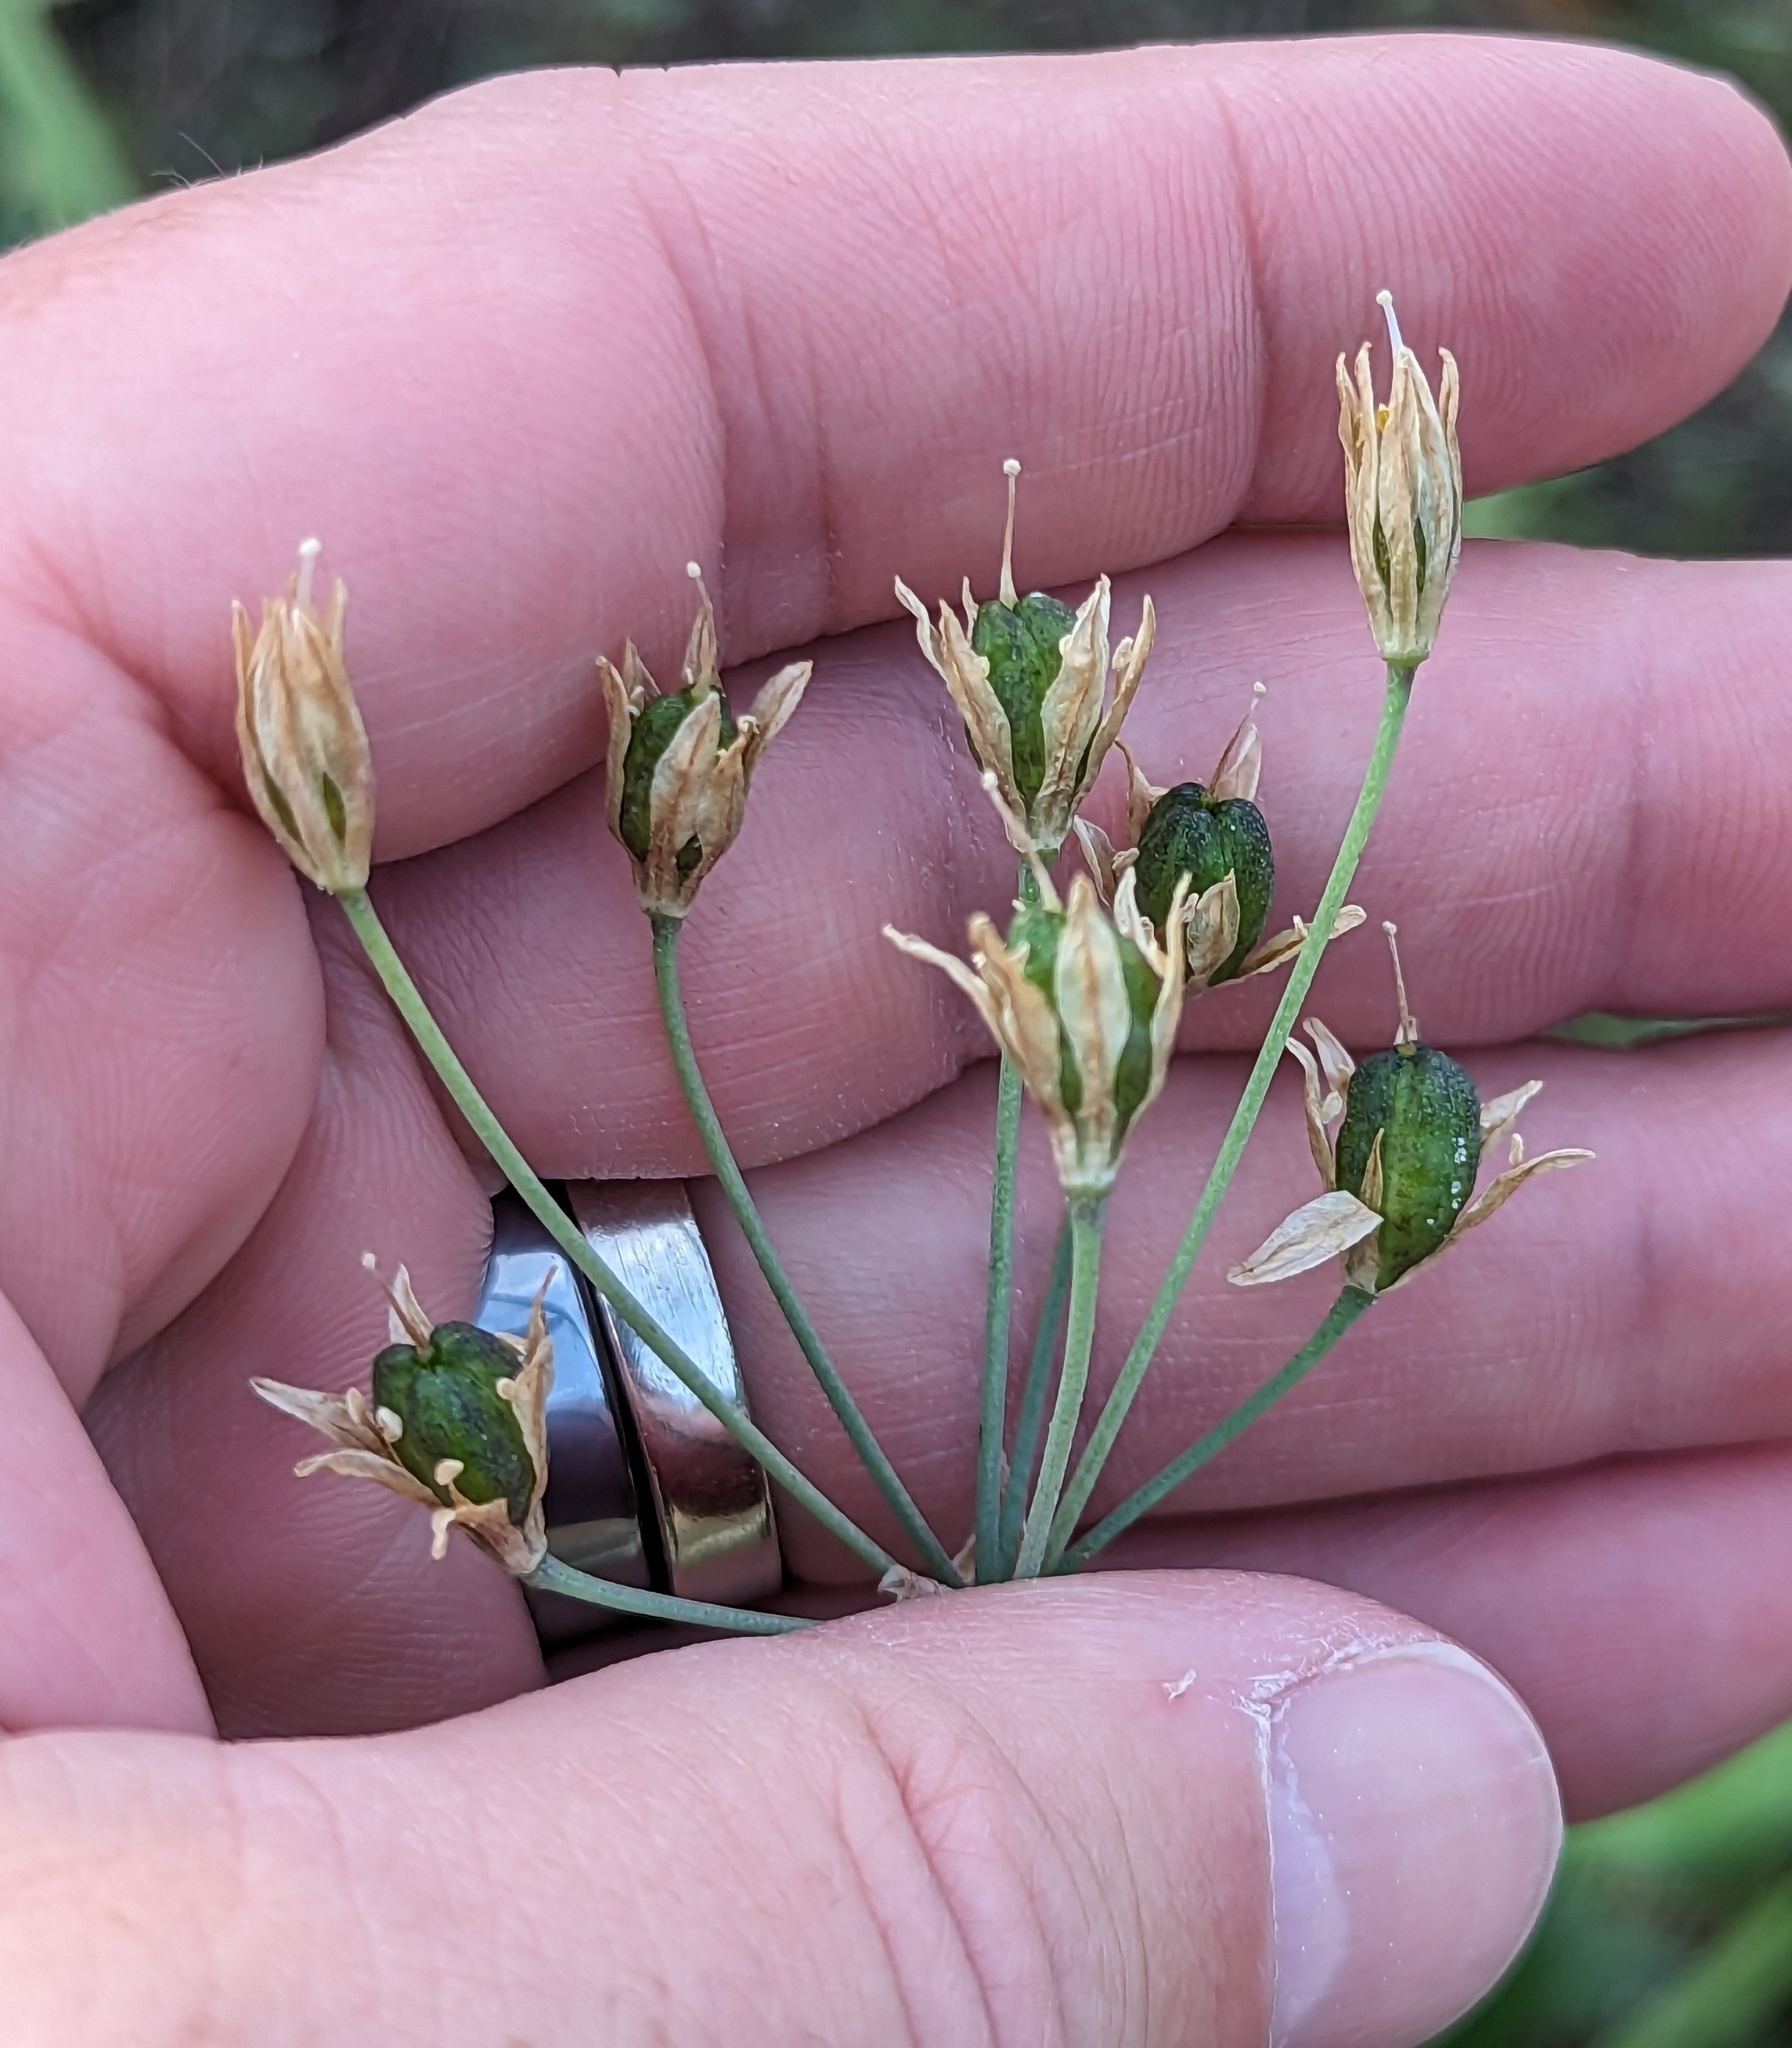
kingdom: Plantae
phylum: Tracheophyta
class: Liliopsida
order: Asparagales
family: Amaryllidaceae
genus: Nothoscordum
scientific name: Nothoscordum borbonicum
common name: Honeybells
